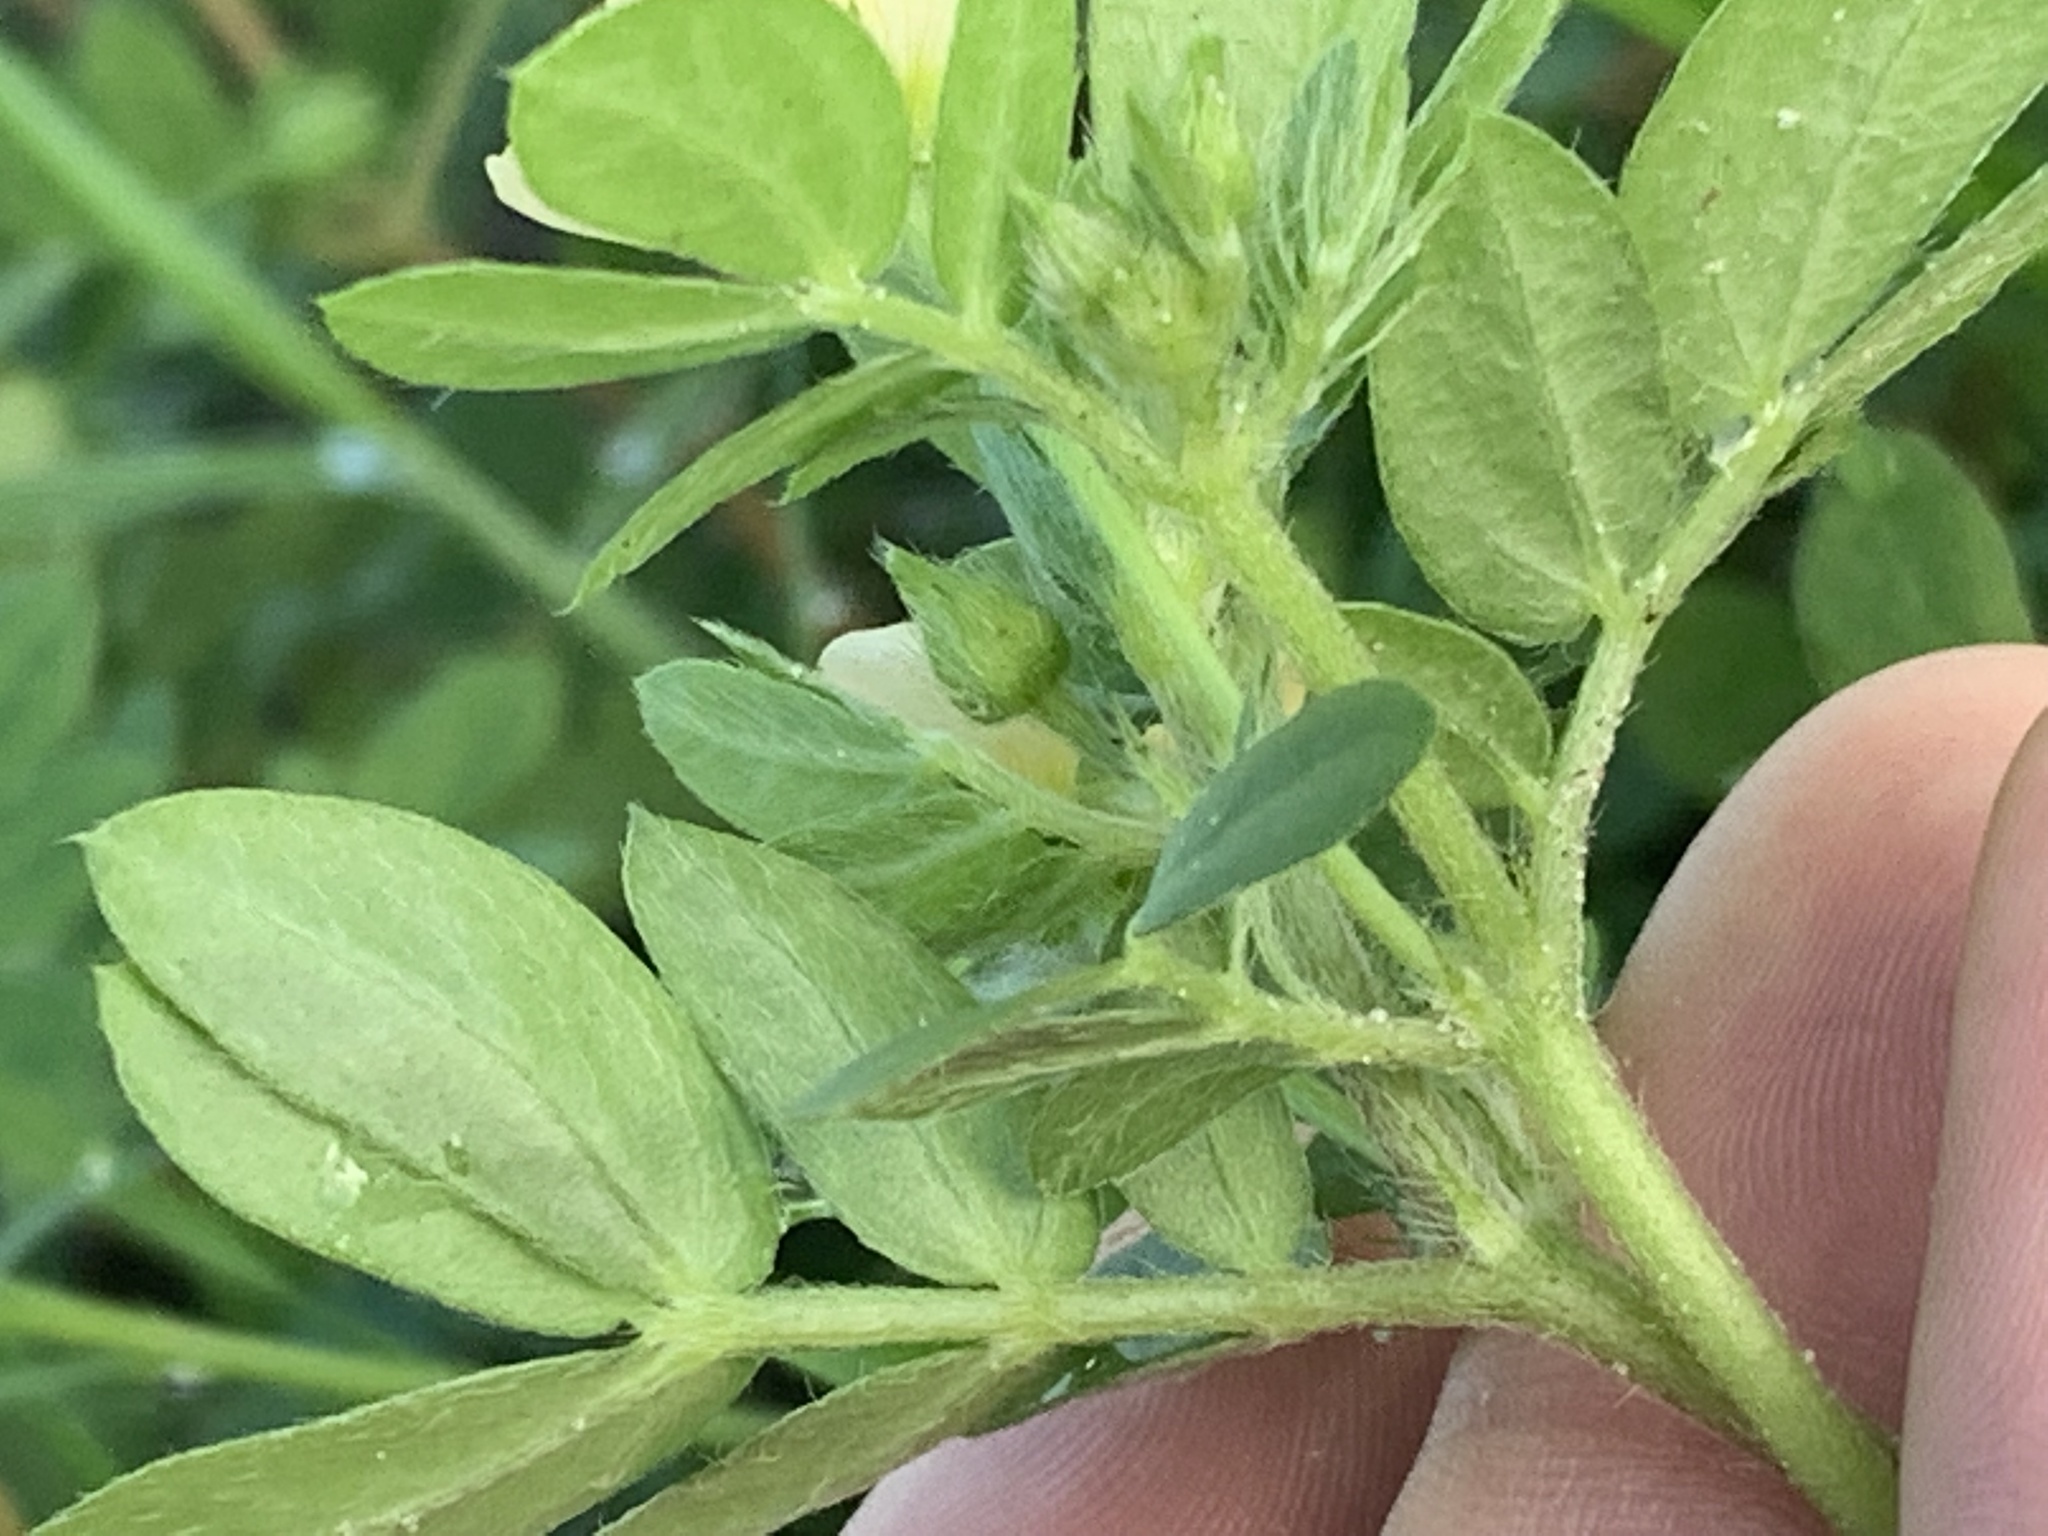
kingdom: Plantae
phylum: Tracheophyta
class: Magnoliopsida
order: Zygophyllales
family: Zygophyllaceae
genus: Kallstroemia
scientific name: Kallstroemia maxima
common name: Big caltropa
